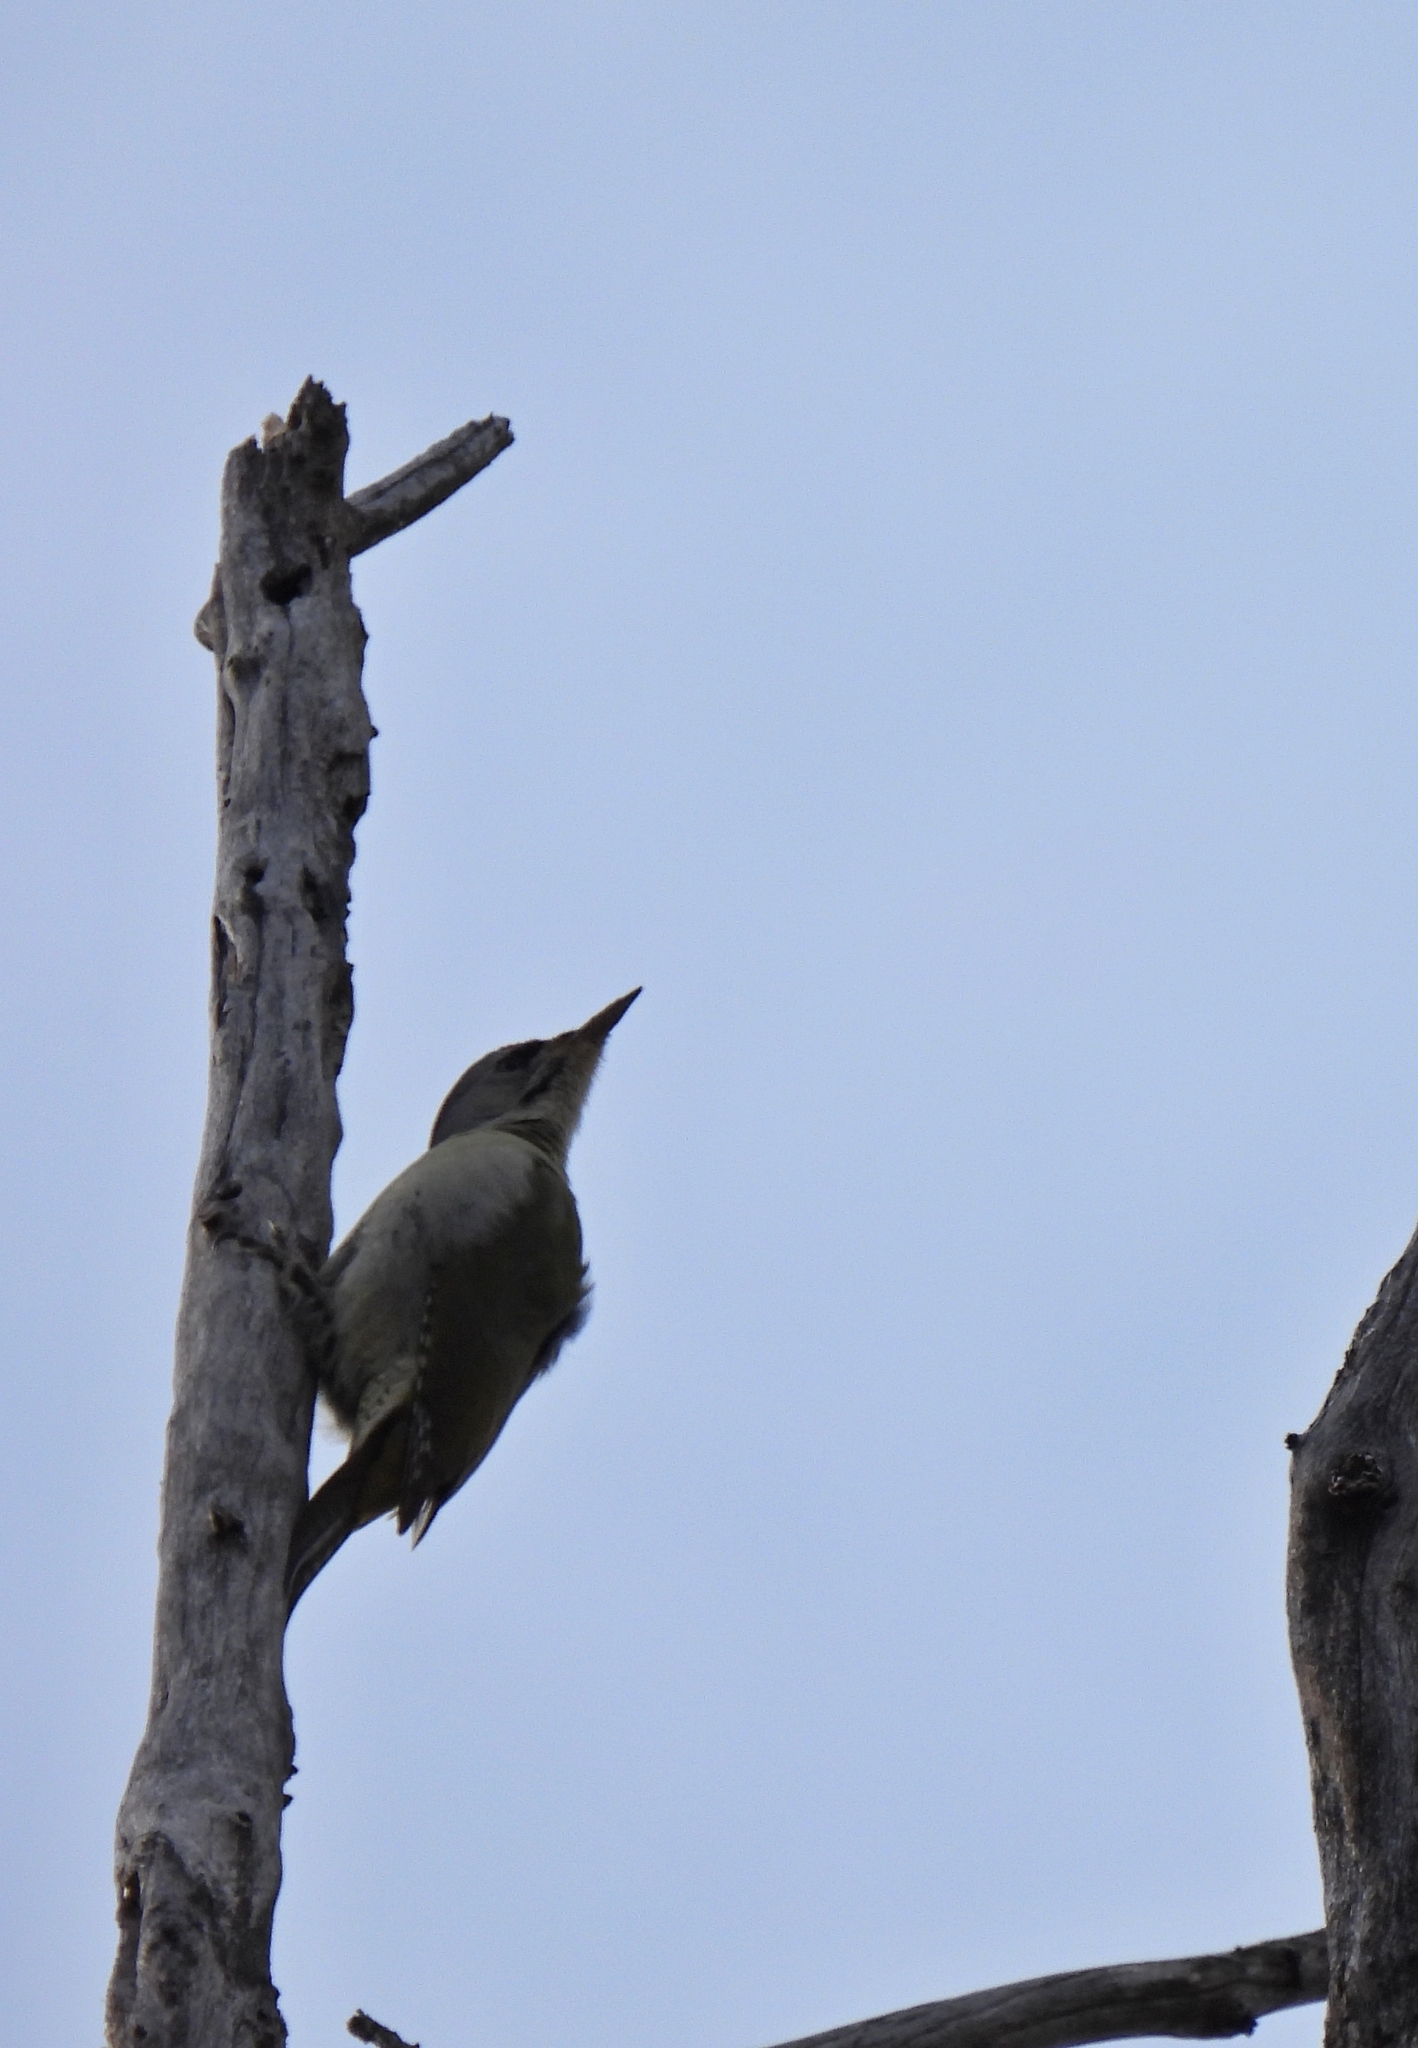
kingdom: Animalia
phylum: Chordata
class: Aves
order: Piciformes
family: Picidae
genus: Picus
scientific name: Picus canus
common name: Grey-headed woodpecker
